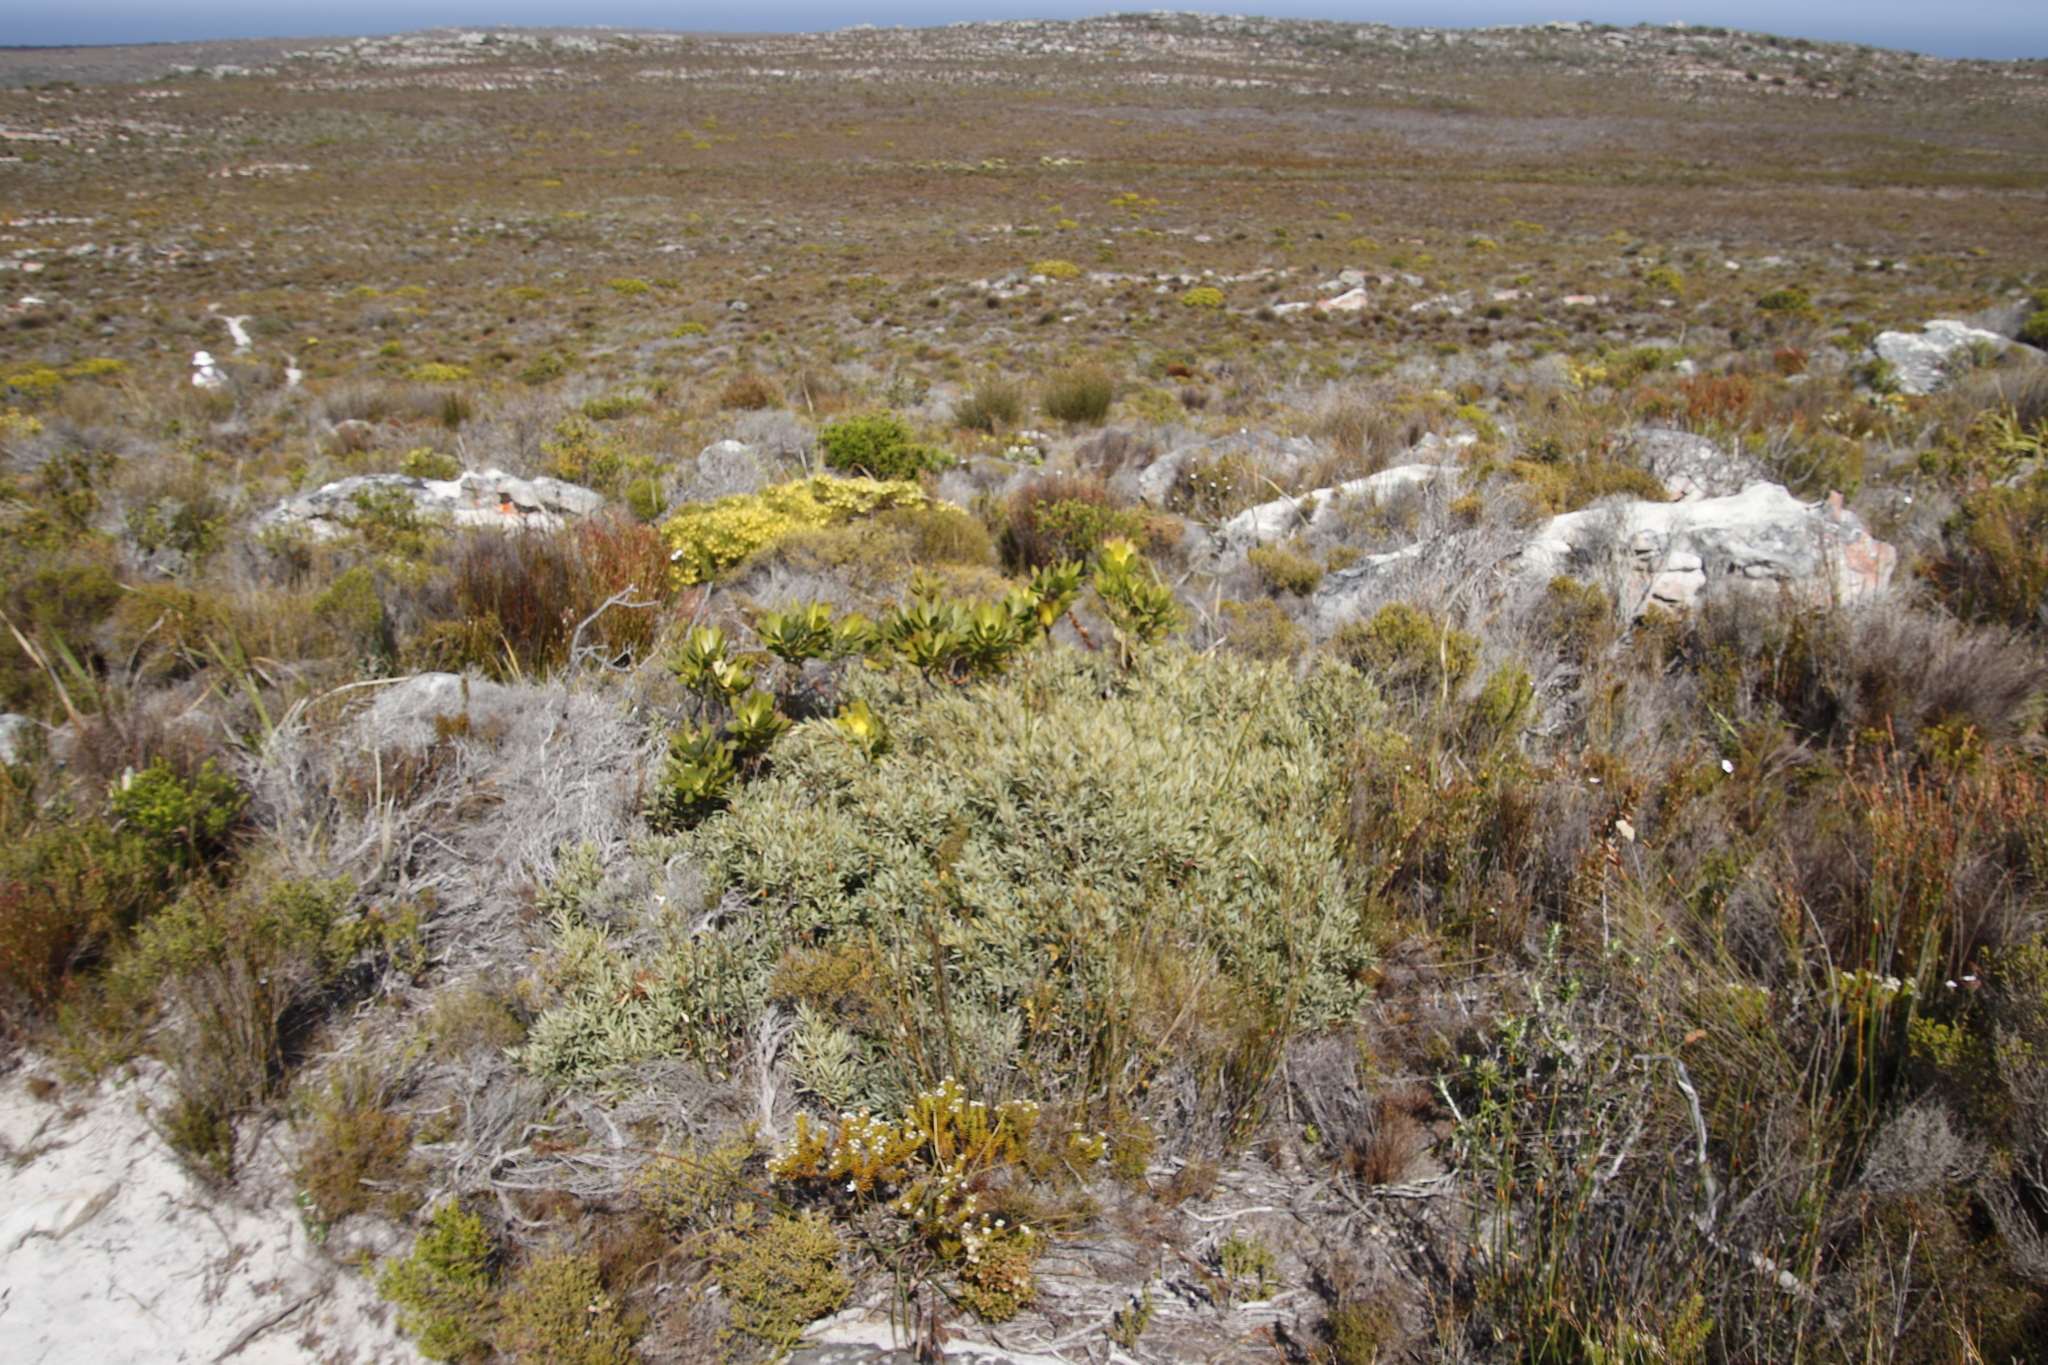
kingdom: Plantae
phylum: Tracheophyta
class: Magnoliopsida
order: Cornales
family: Grubbiaceae
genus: Grubbia
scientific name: Grubbia tomentosa
